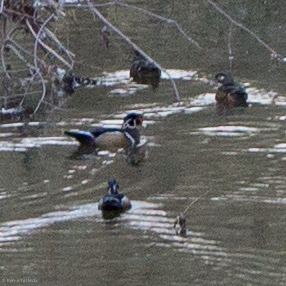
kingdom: Animalia
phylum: Chordata
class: Aves
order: Anseriformes
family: Anatidae
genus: Aix
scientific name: Aix sponsa
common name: Wood duck
